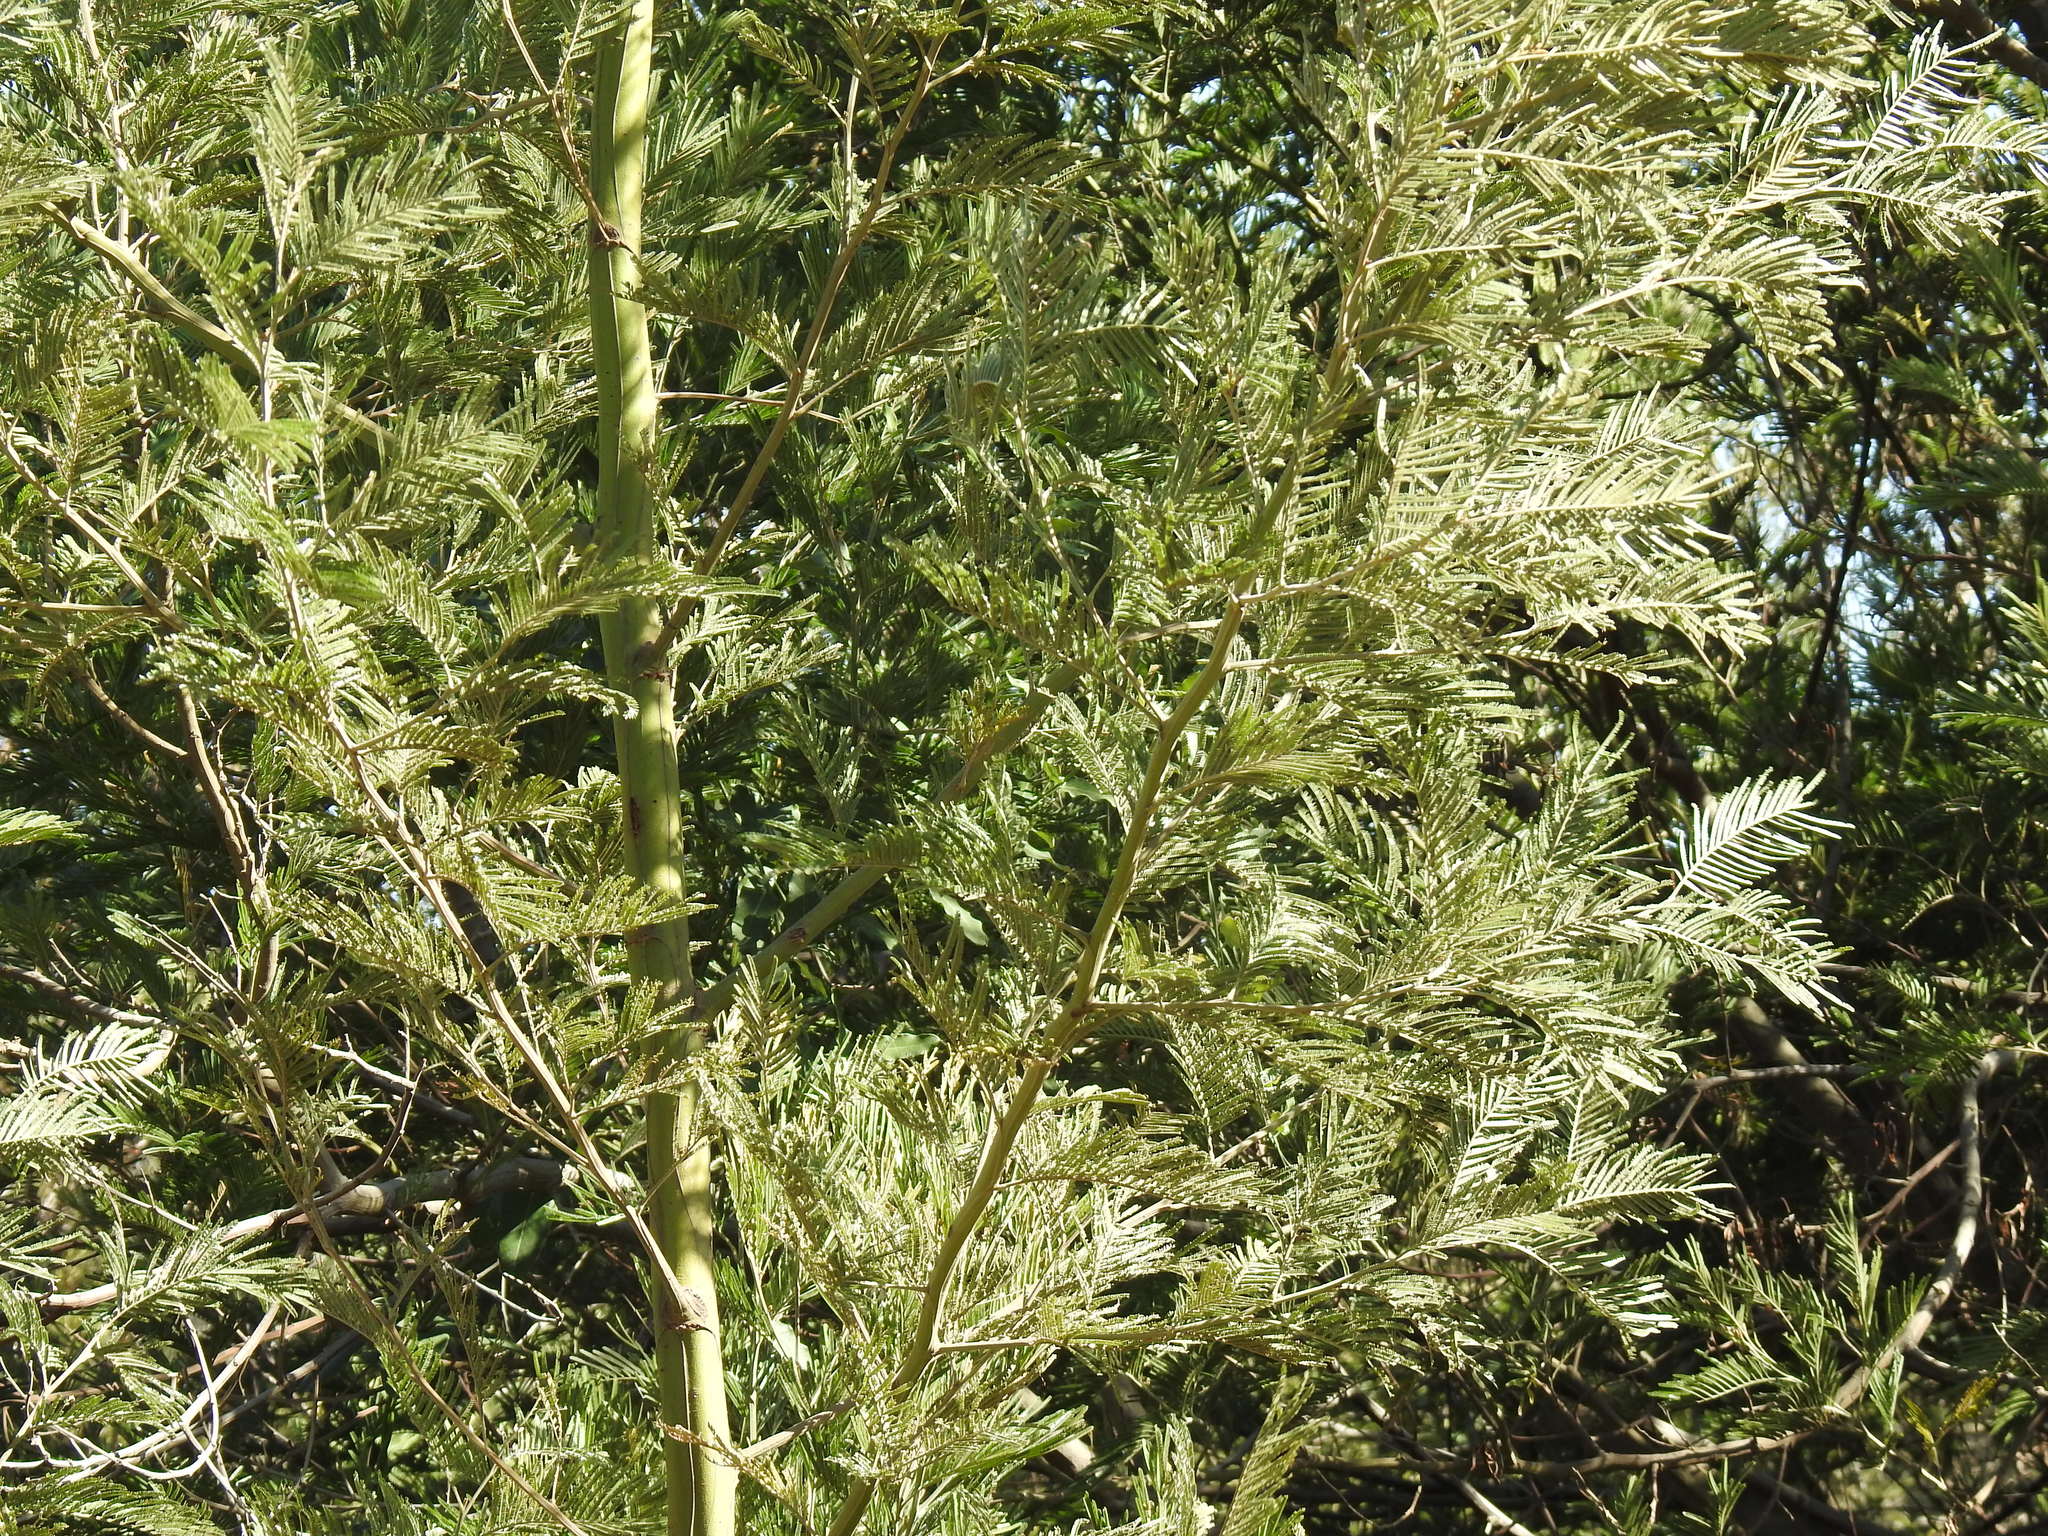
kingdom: Plantae
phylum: Tracheophyta
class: Magnoliopsida
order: Fabales
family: Fabaceae
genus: Acacia
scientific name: Acacia melanoxylon
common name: Blackwood
